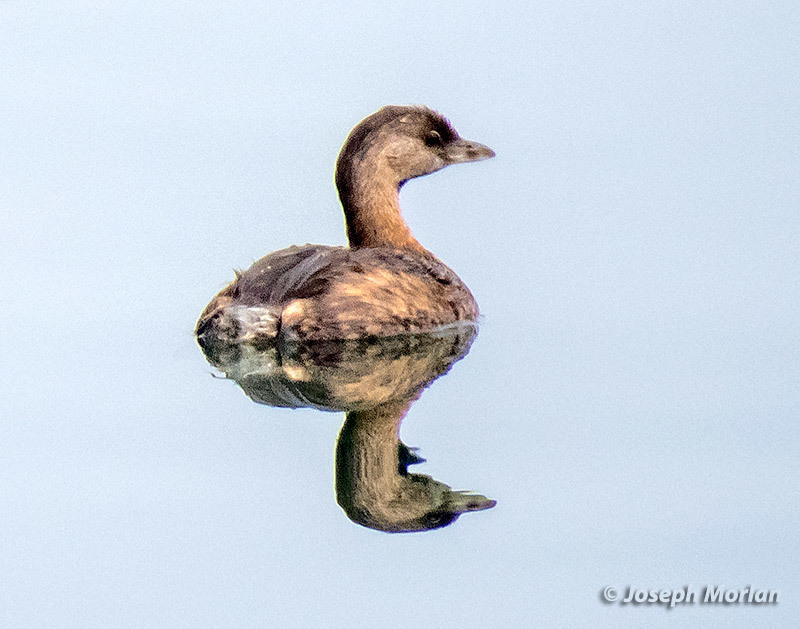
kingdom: Animalia
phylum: Chordata
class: Aves
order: Podicipediformes
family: Podicipedidae
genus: Podilymbus
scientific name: Podilymbus podiceps
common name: Pied-billed grebe
